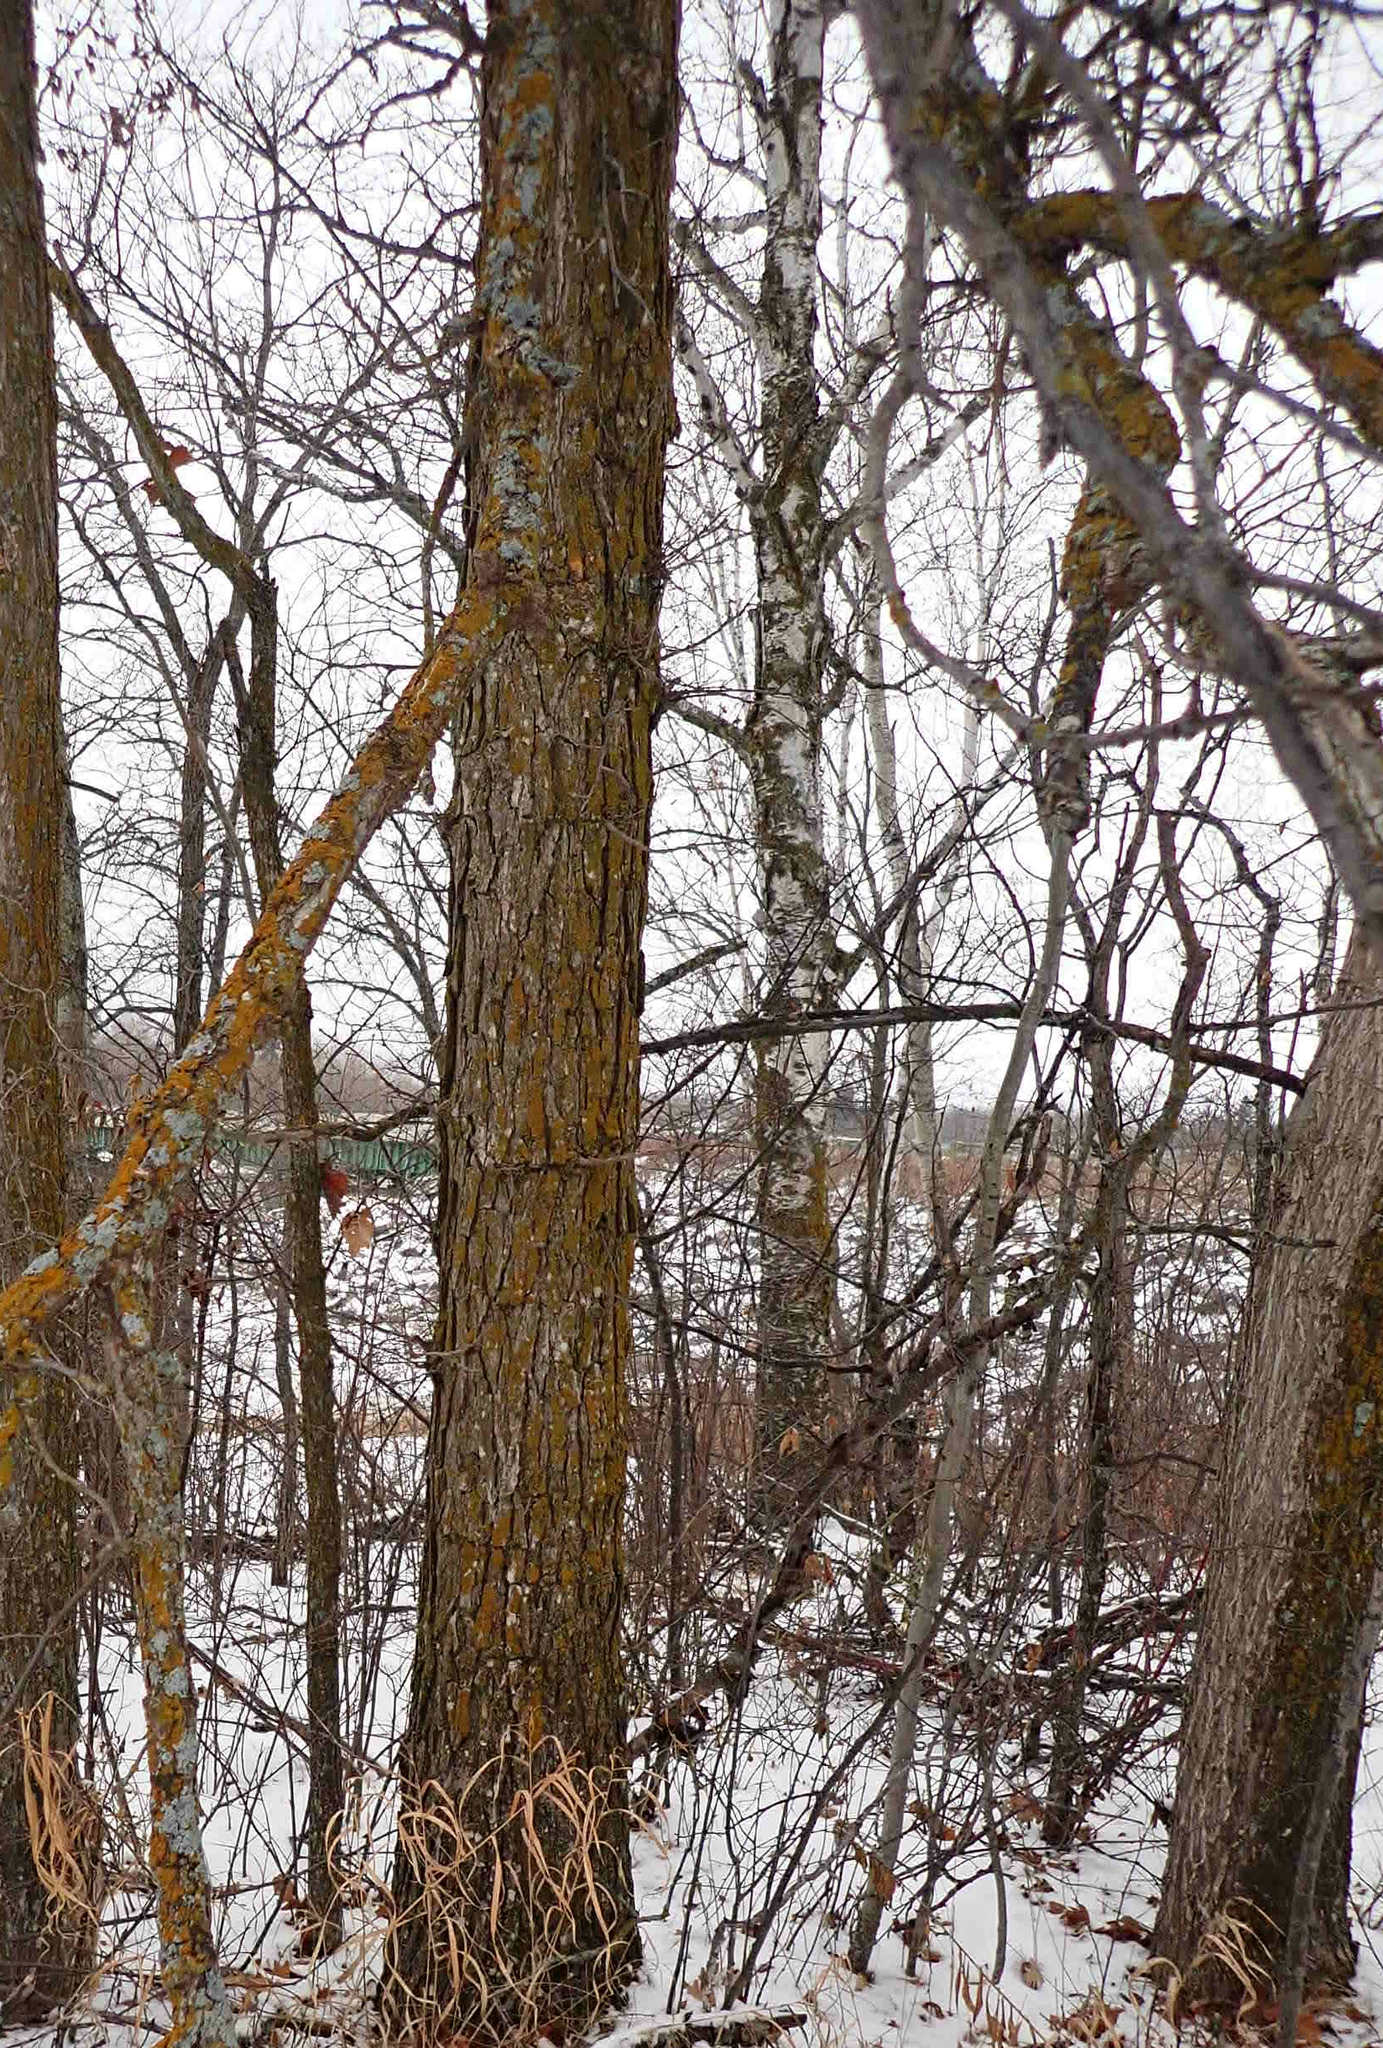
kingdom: Plantae
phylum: Tracheophyta
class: Magnoliopsida
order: Fagales
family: Fagaceae
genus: Quercus
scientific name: Quercus macrocarpa
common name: Bur oak
